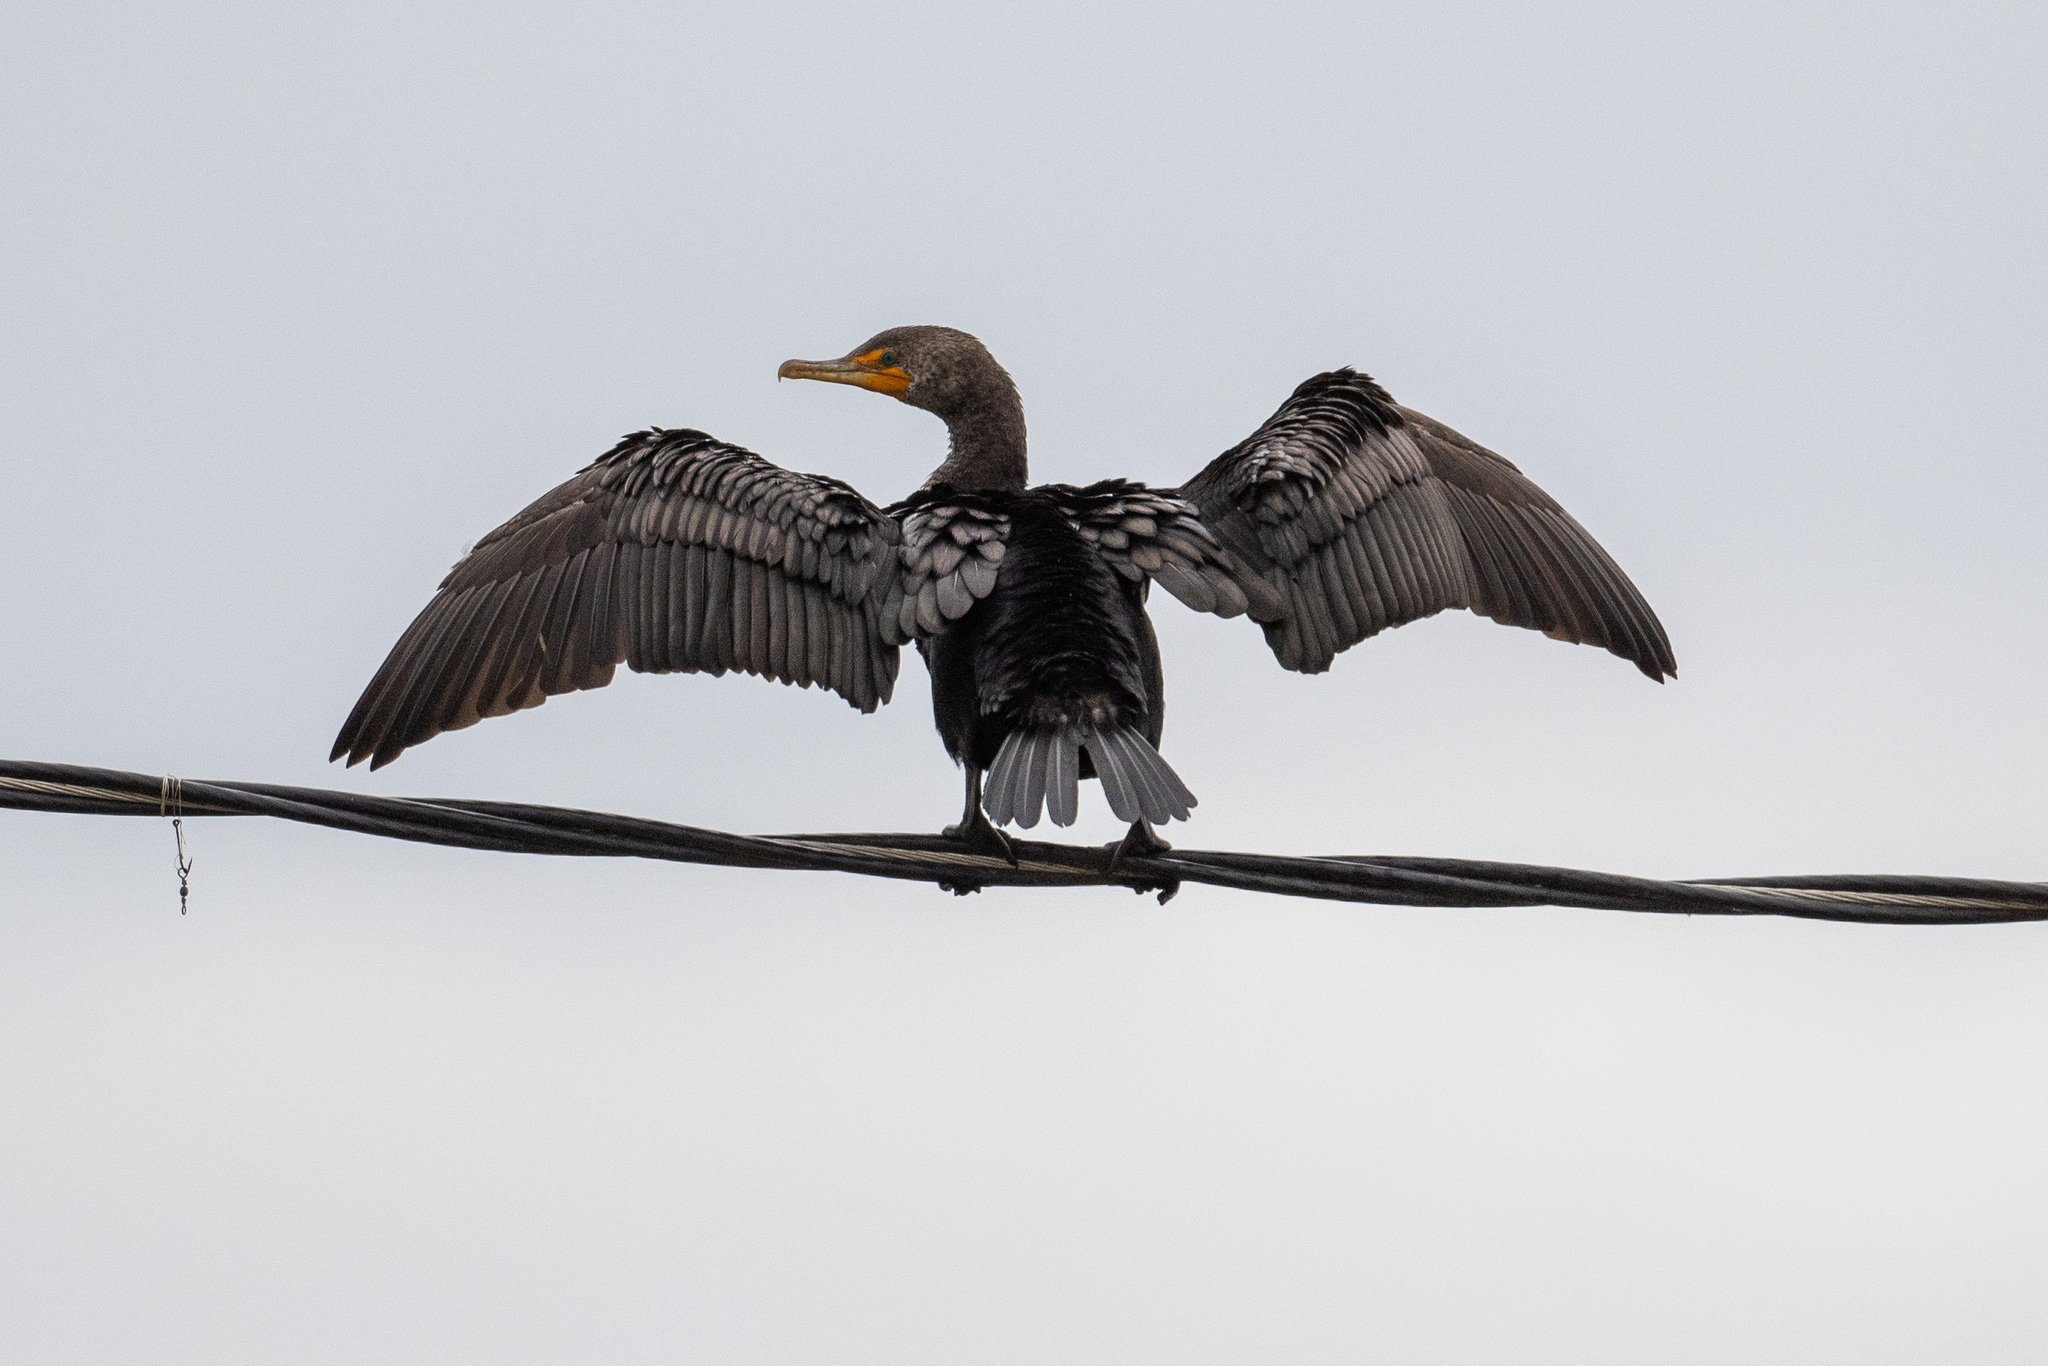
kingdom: Animalia
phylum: Chordata
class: Aves
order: Suliformes
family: Phalacrocoracidae
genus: Phalacrocorax
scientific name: Phalacrocorax auritus
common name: Double-crested cormorant
